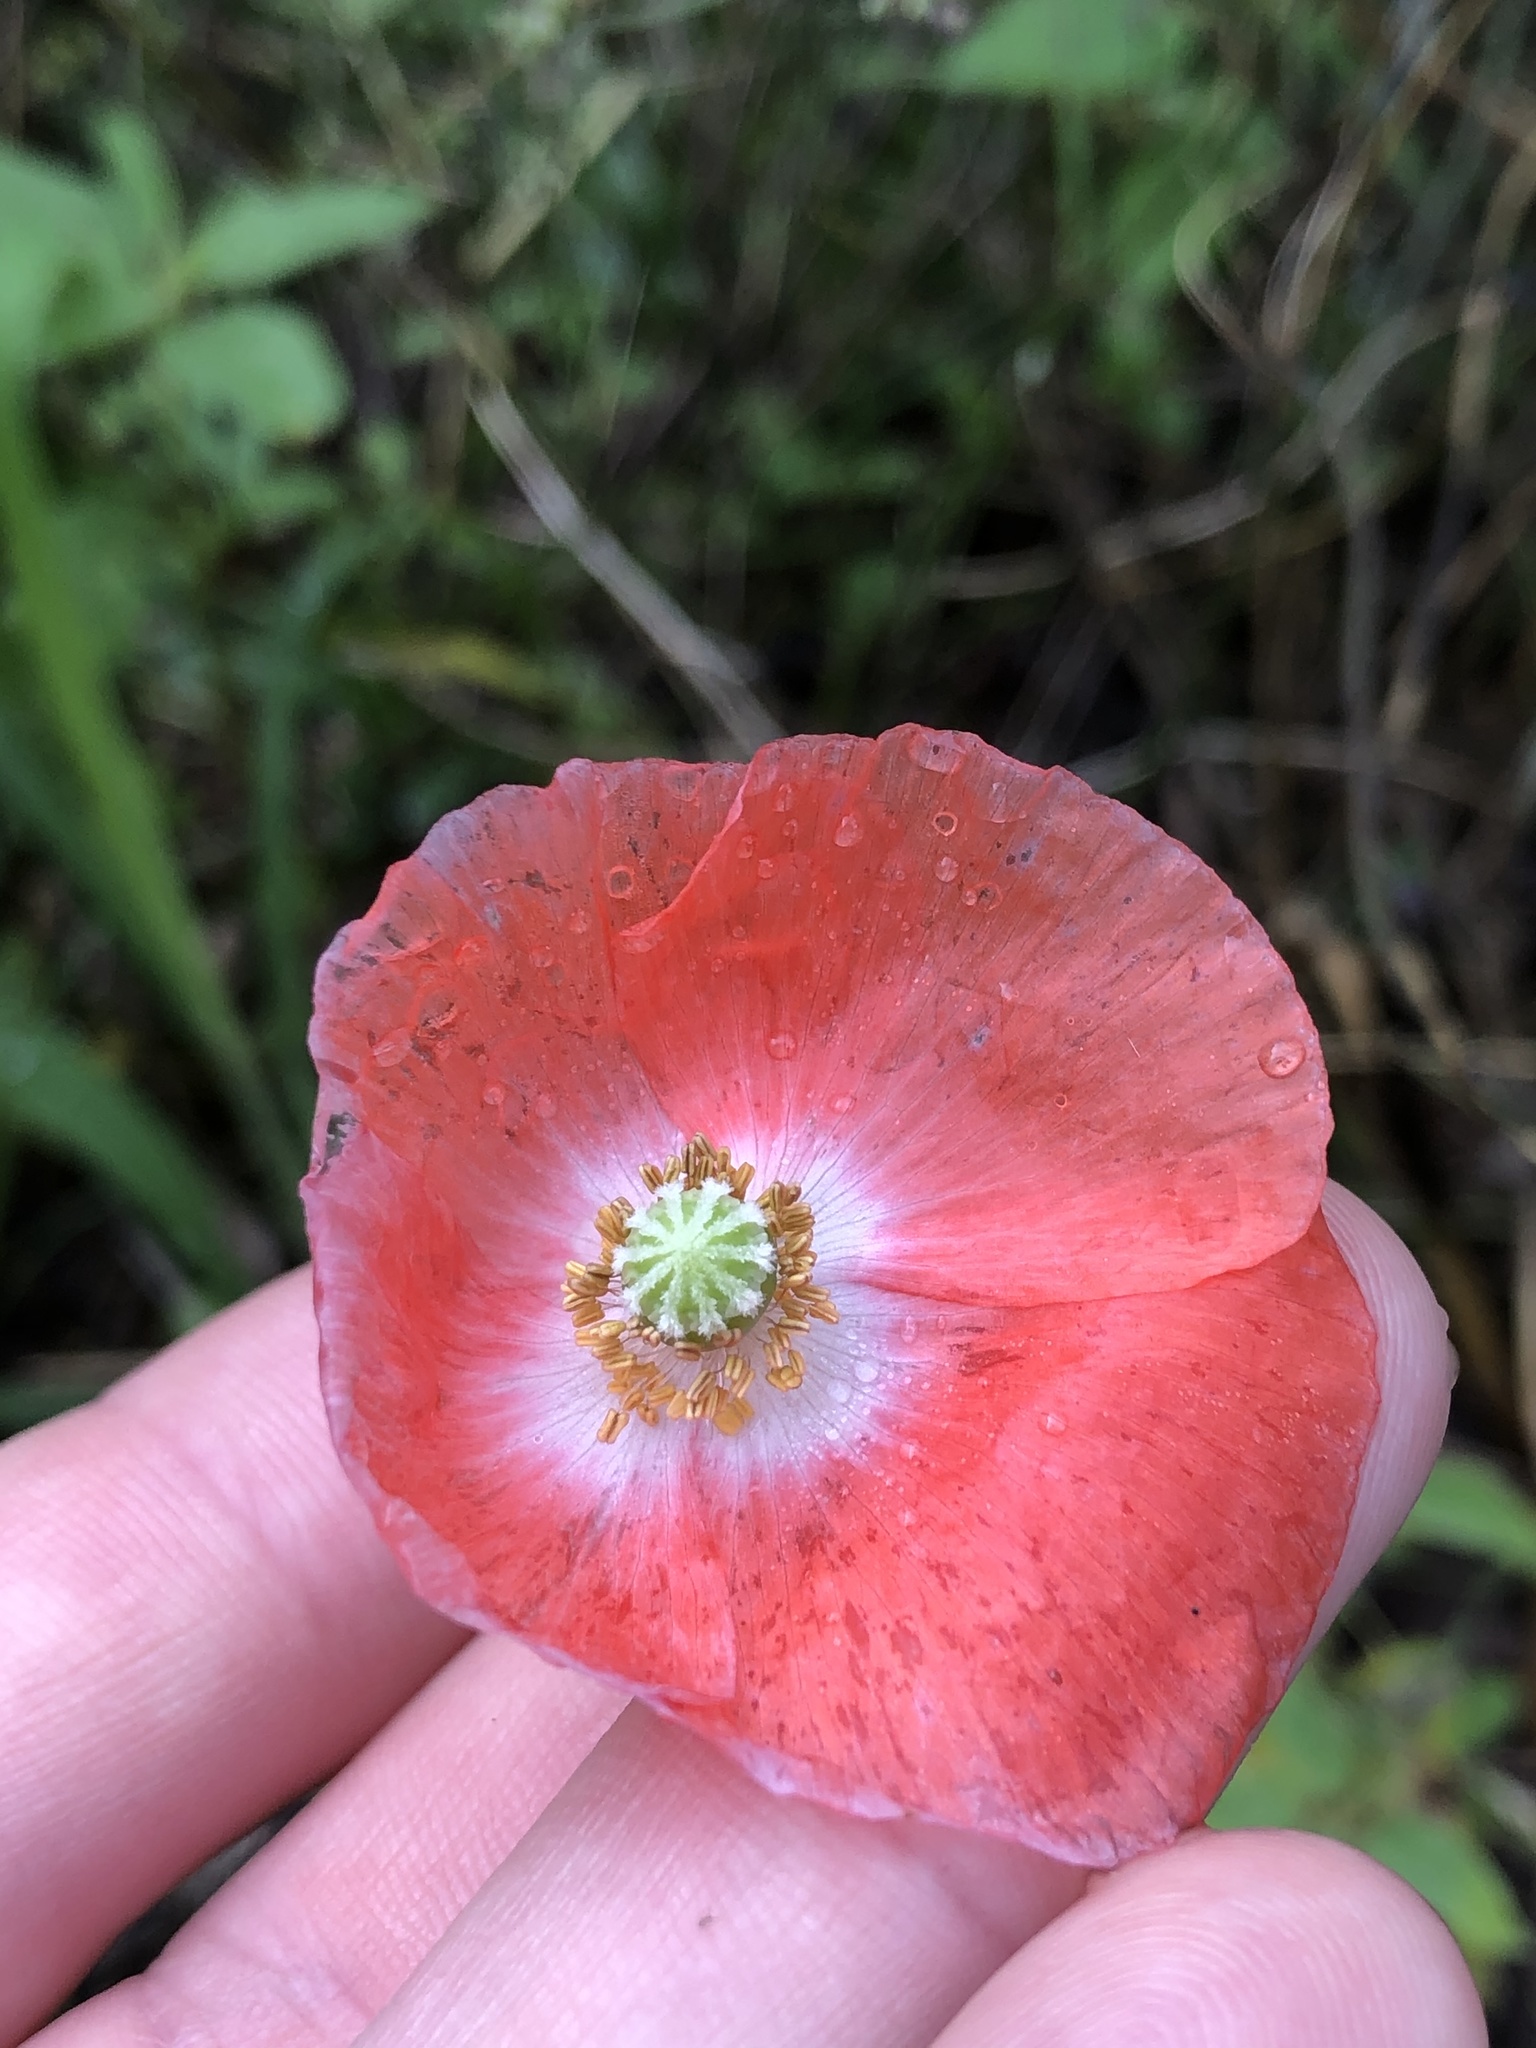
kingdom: Plantae
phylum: Tracheophyta
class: Magnoliopsida
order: Ranunculales
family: Papaveraceae
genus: Papaver
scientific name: Papaver rhoeas
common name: Corn poppy
